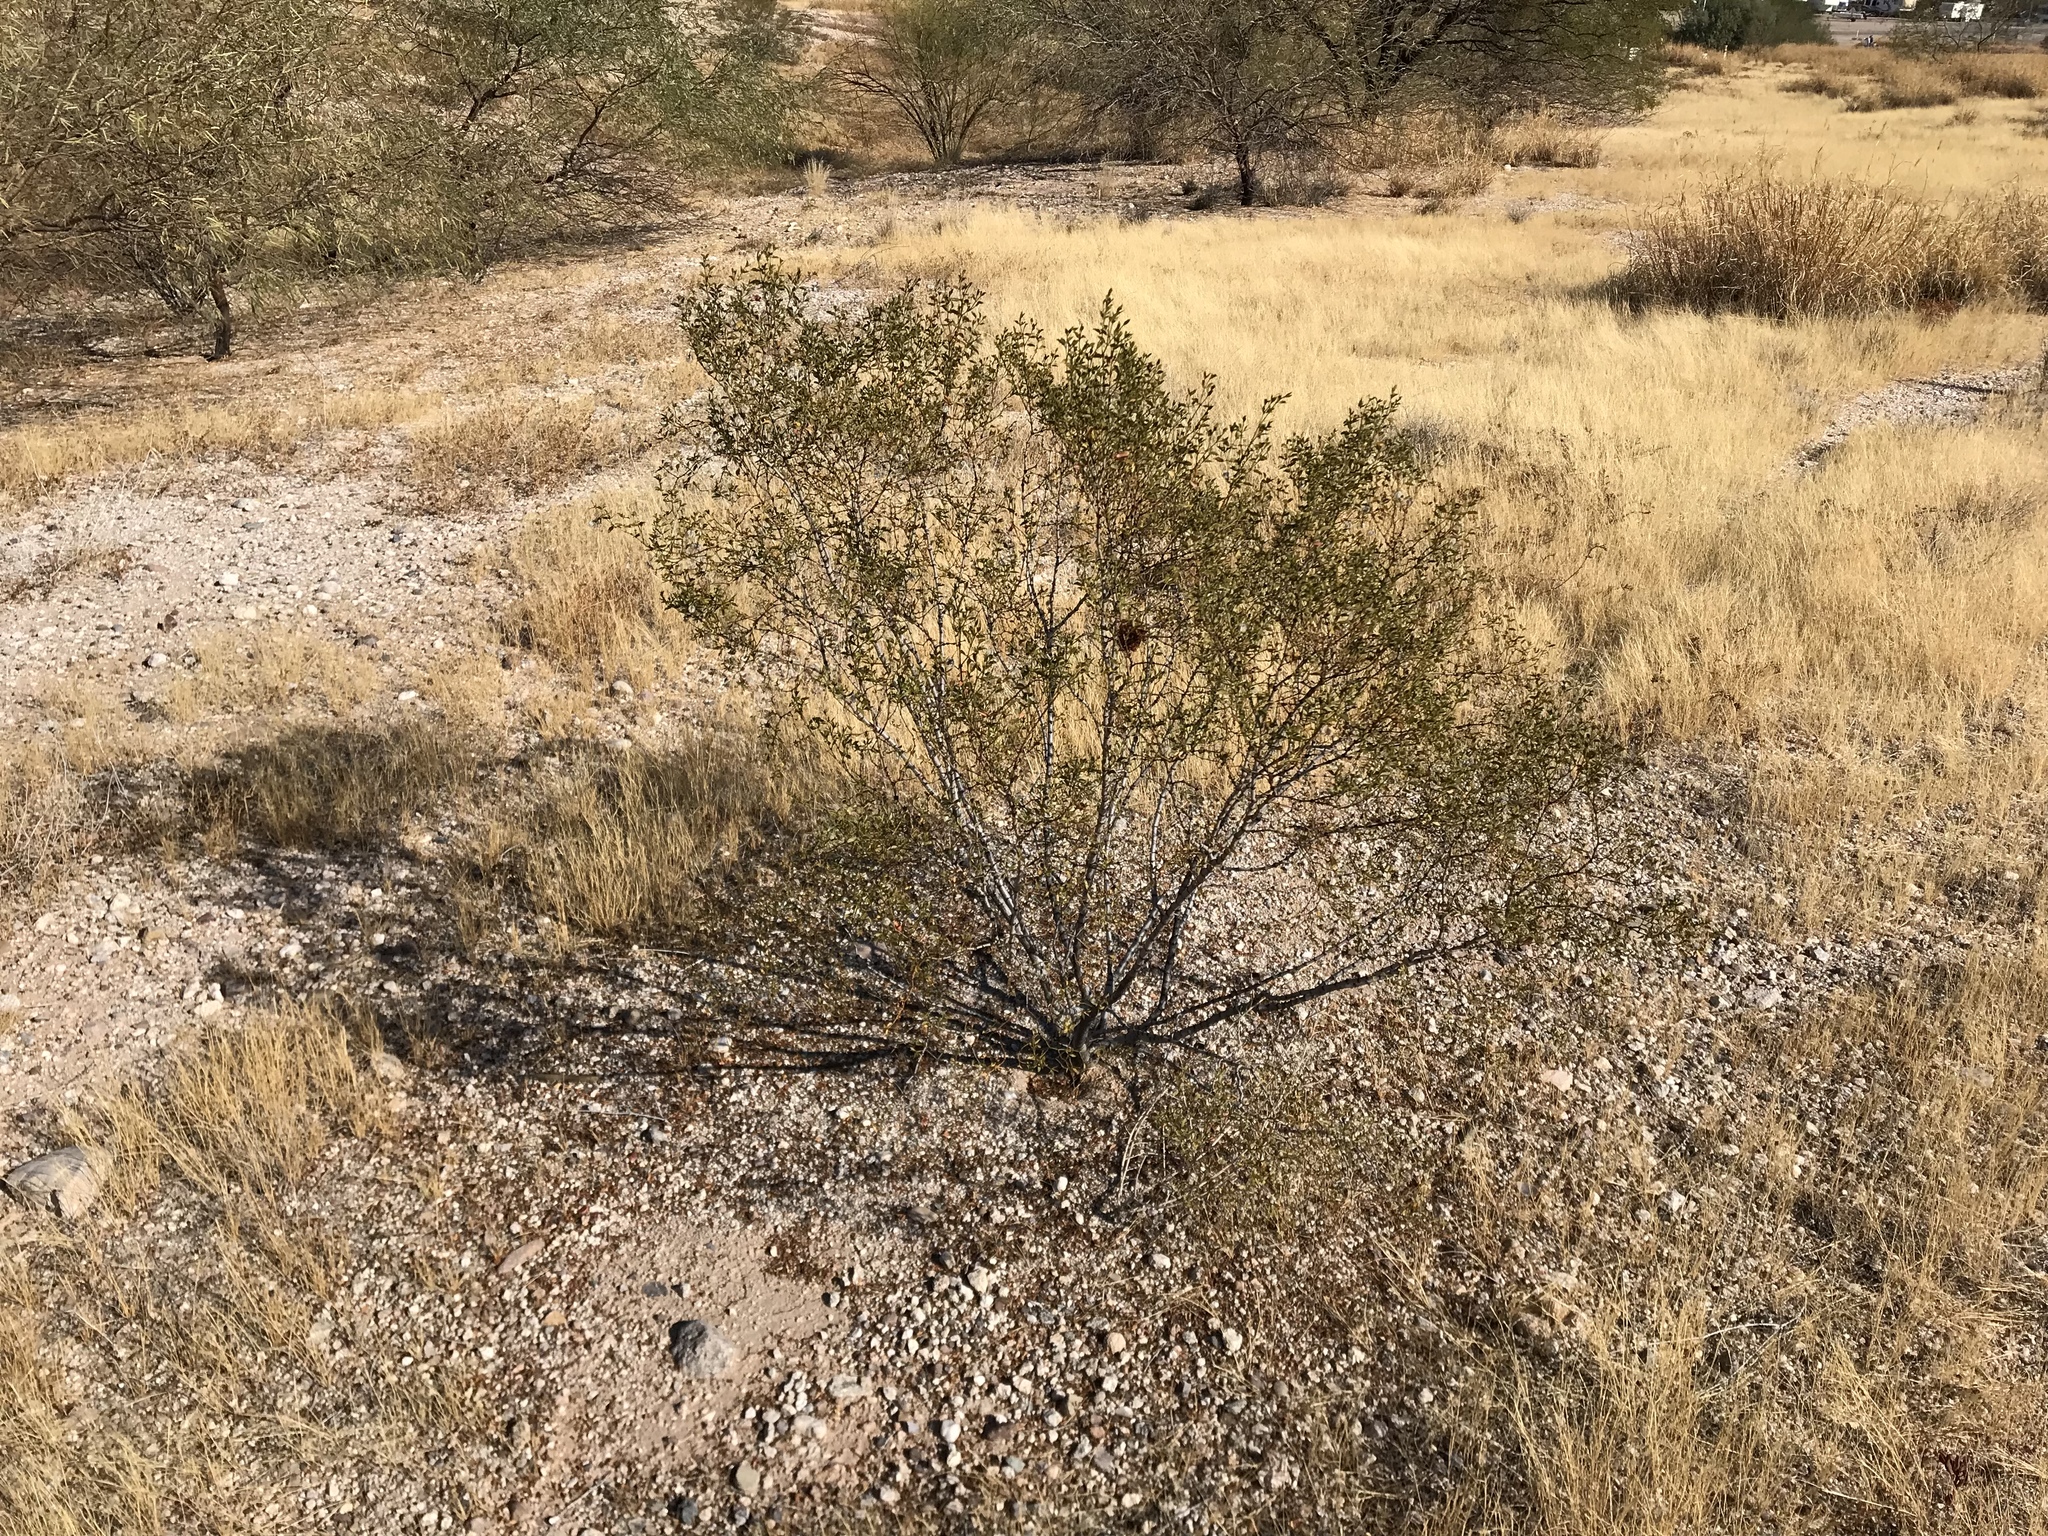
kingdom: Plantae
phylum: Tracheophyta
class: Magnoliopsida
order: Zygophyllales
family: Zygophyllaceae
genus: Larrea
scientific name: Larrea tridentata
